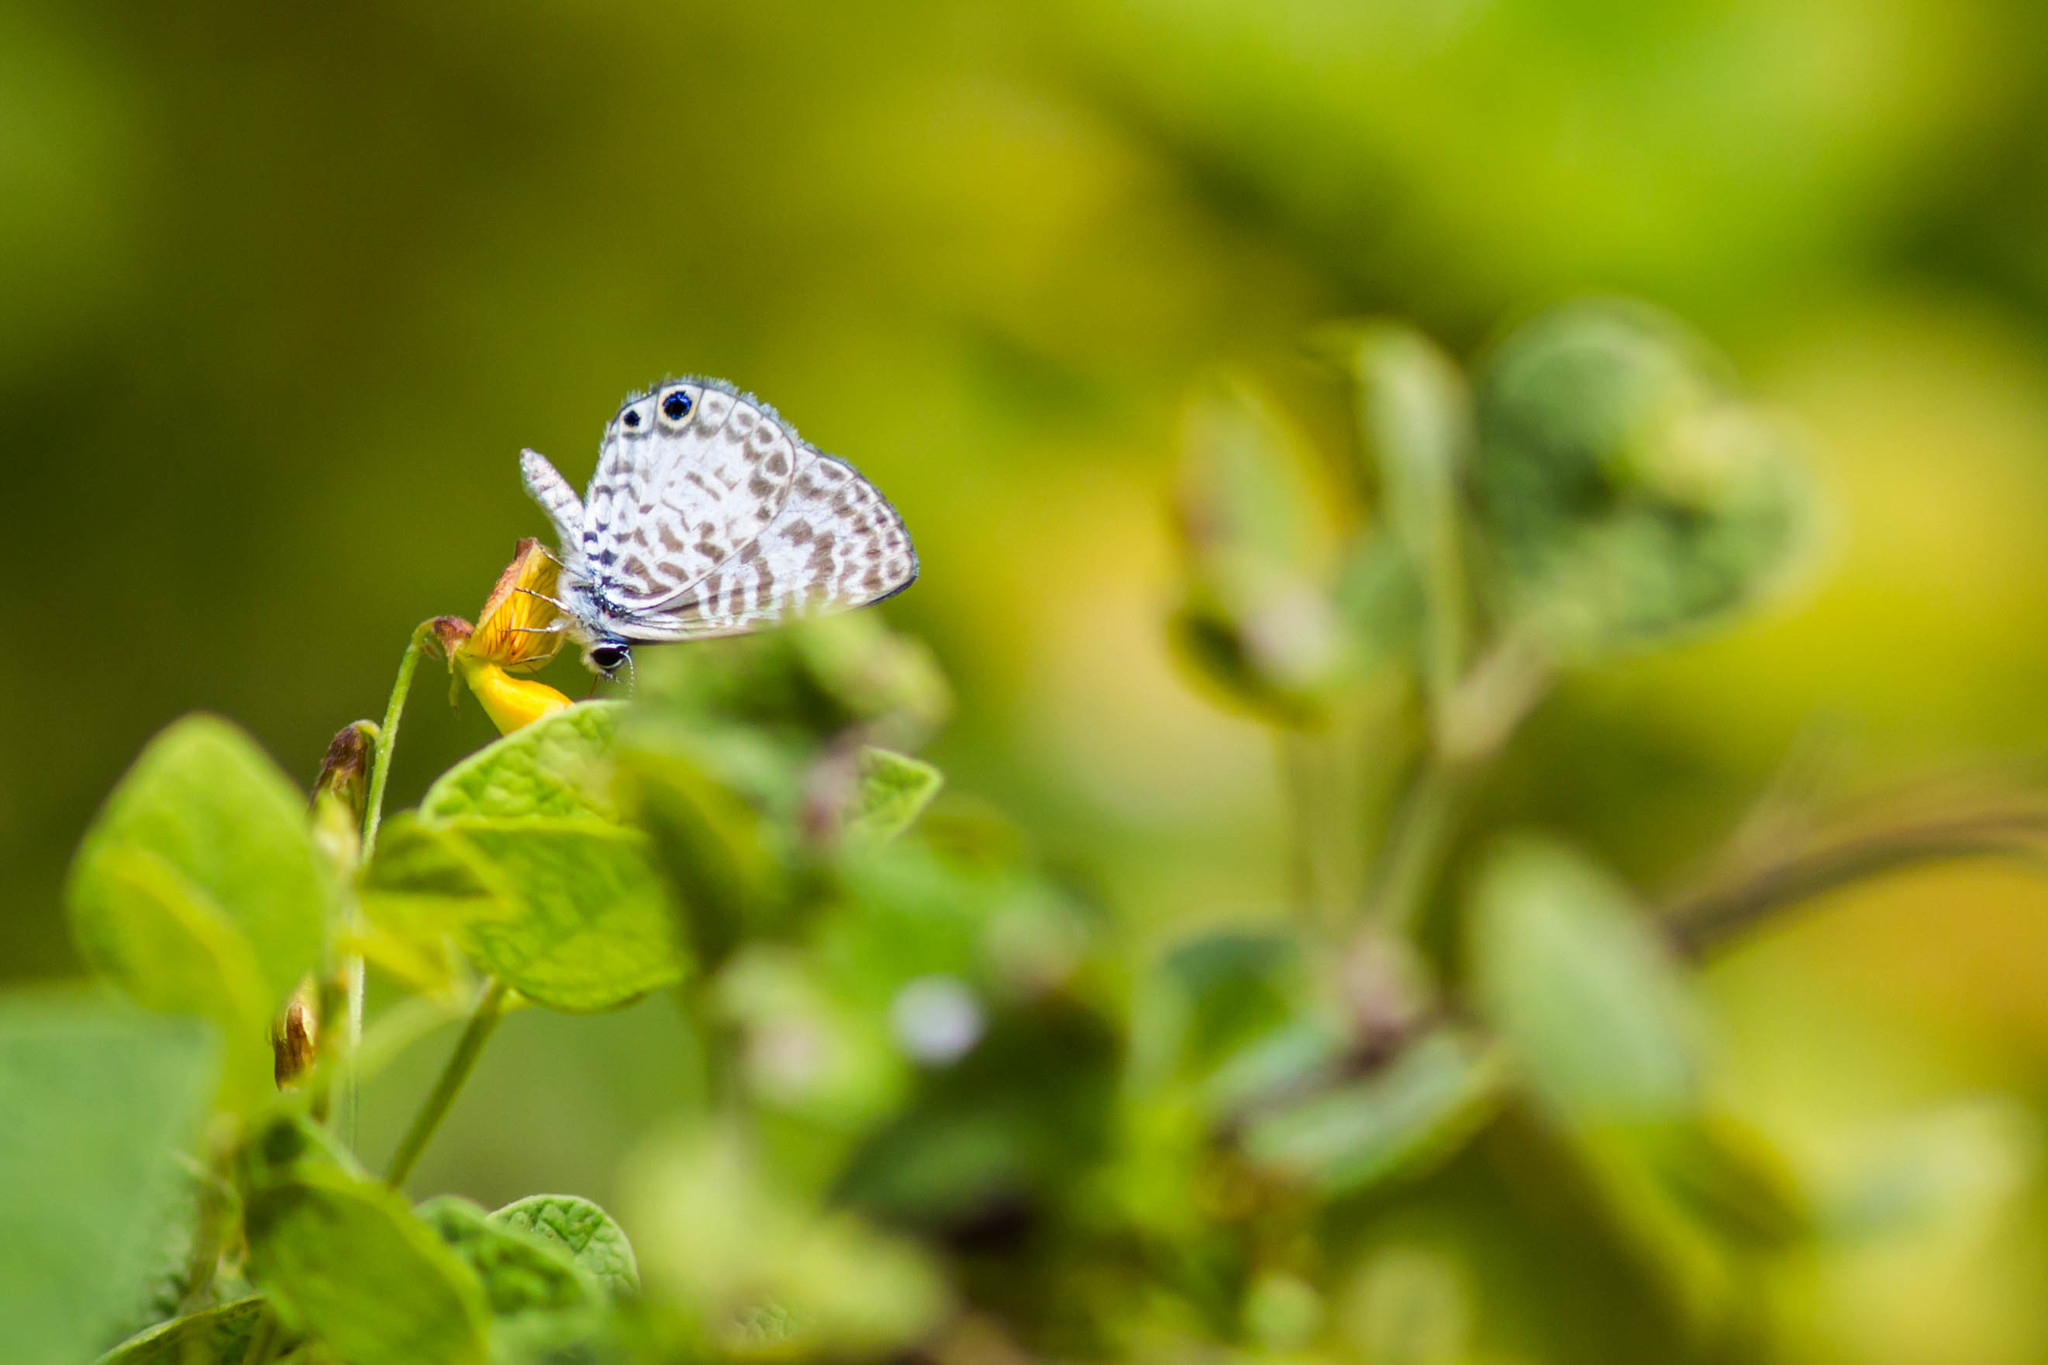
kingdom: Animalia
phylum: Arthropoda
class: Insecta
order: Lepidoptera
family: Lycaenidae
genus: Leptotes
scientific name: Leptotes cassius
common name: Cassius blue
